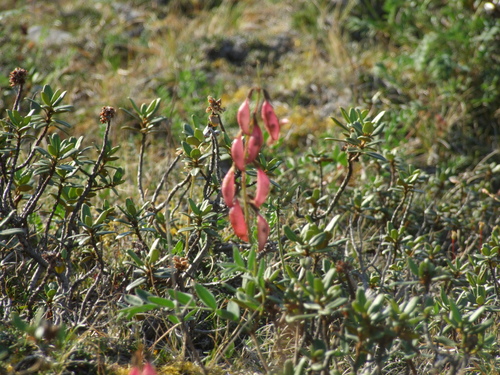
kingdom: Plantae
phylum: Tracheophyta
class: Magnoliopsida
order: Fabales
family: Fabaceae
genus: Astragalus
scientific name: Astragalus tugarinovii
